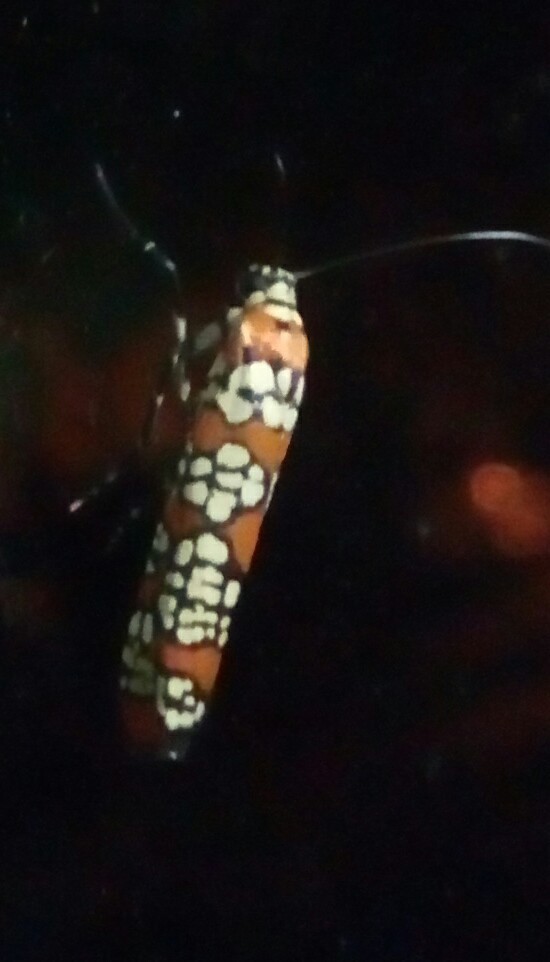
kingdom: Animalia
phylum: Arthropoda
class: Insecta
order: Lepidoptera
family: Attevidae
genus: Atteva
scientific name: Atteva punctella
